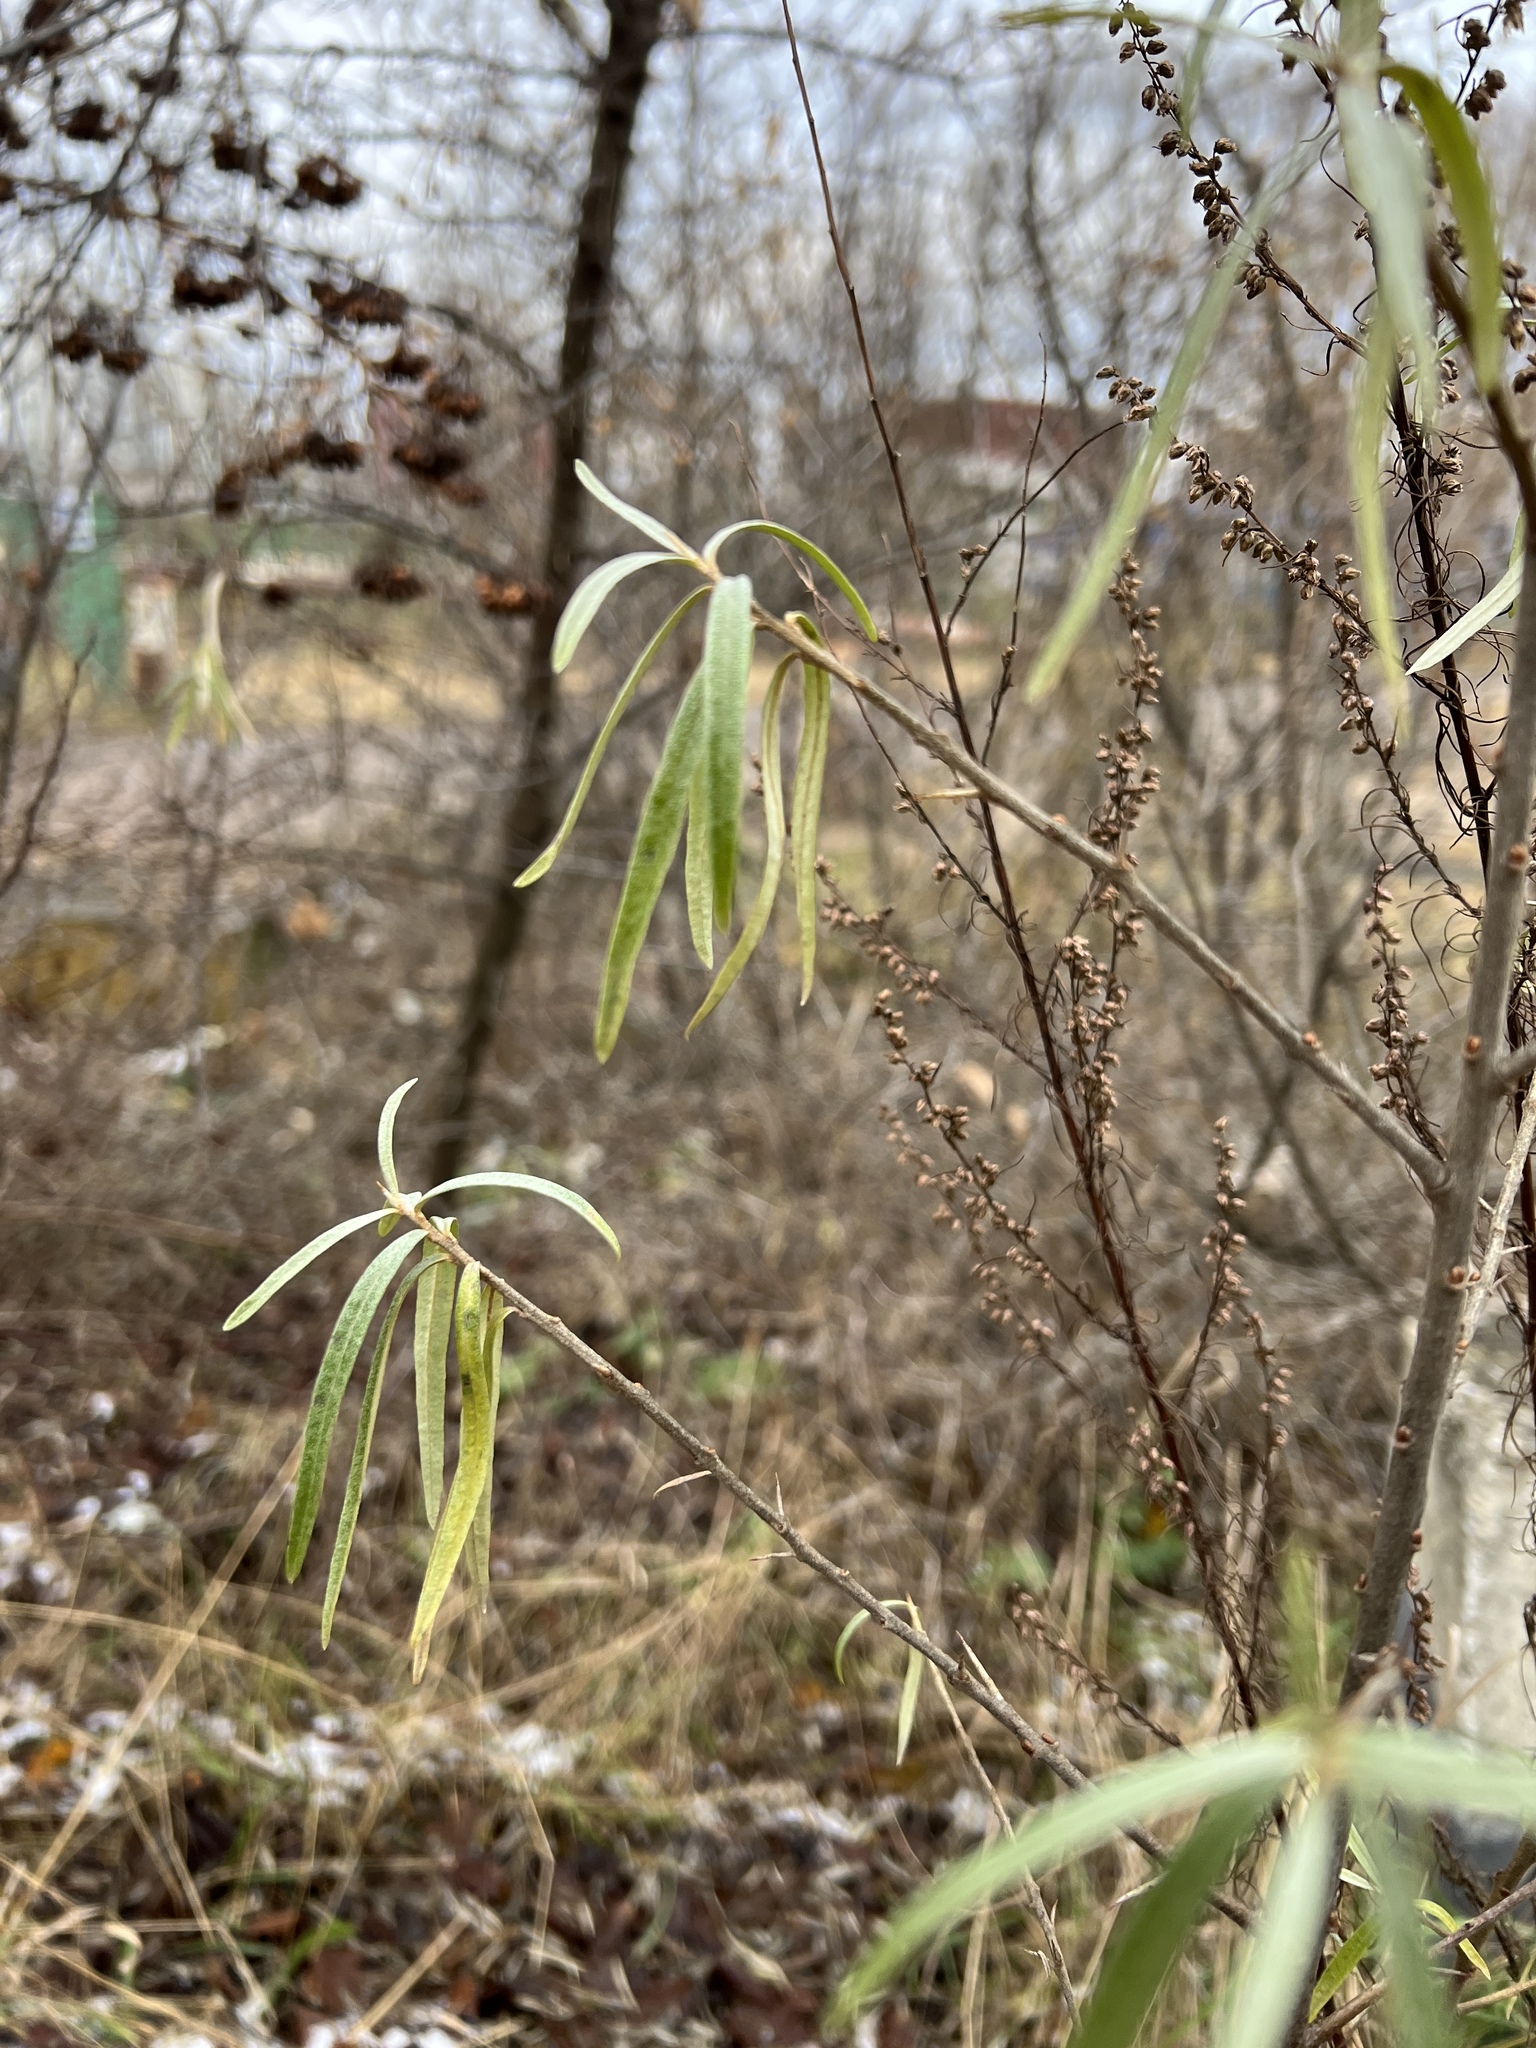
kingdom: Plantae
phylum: Tracheophyta
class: Magnoliopsida
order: Rosales
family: Elaeagnaceae
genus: Hippophae
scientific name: Hippophae rhamnoides
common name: Sea-buckthorn
